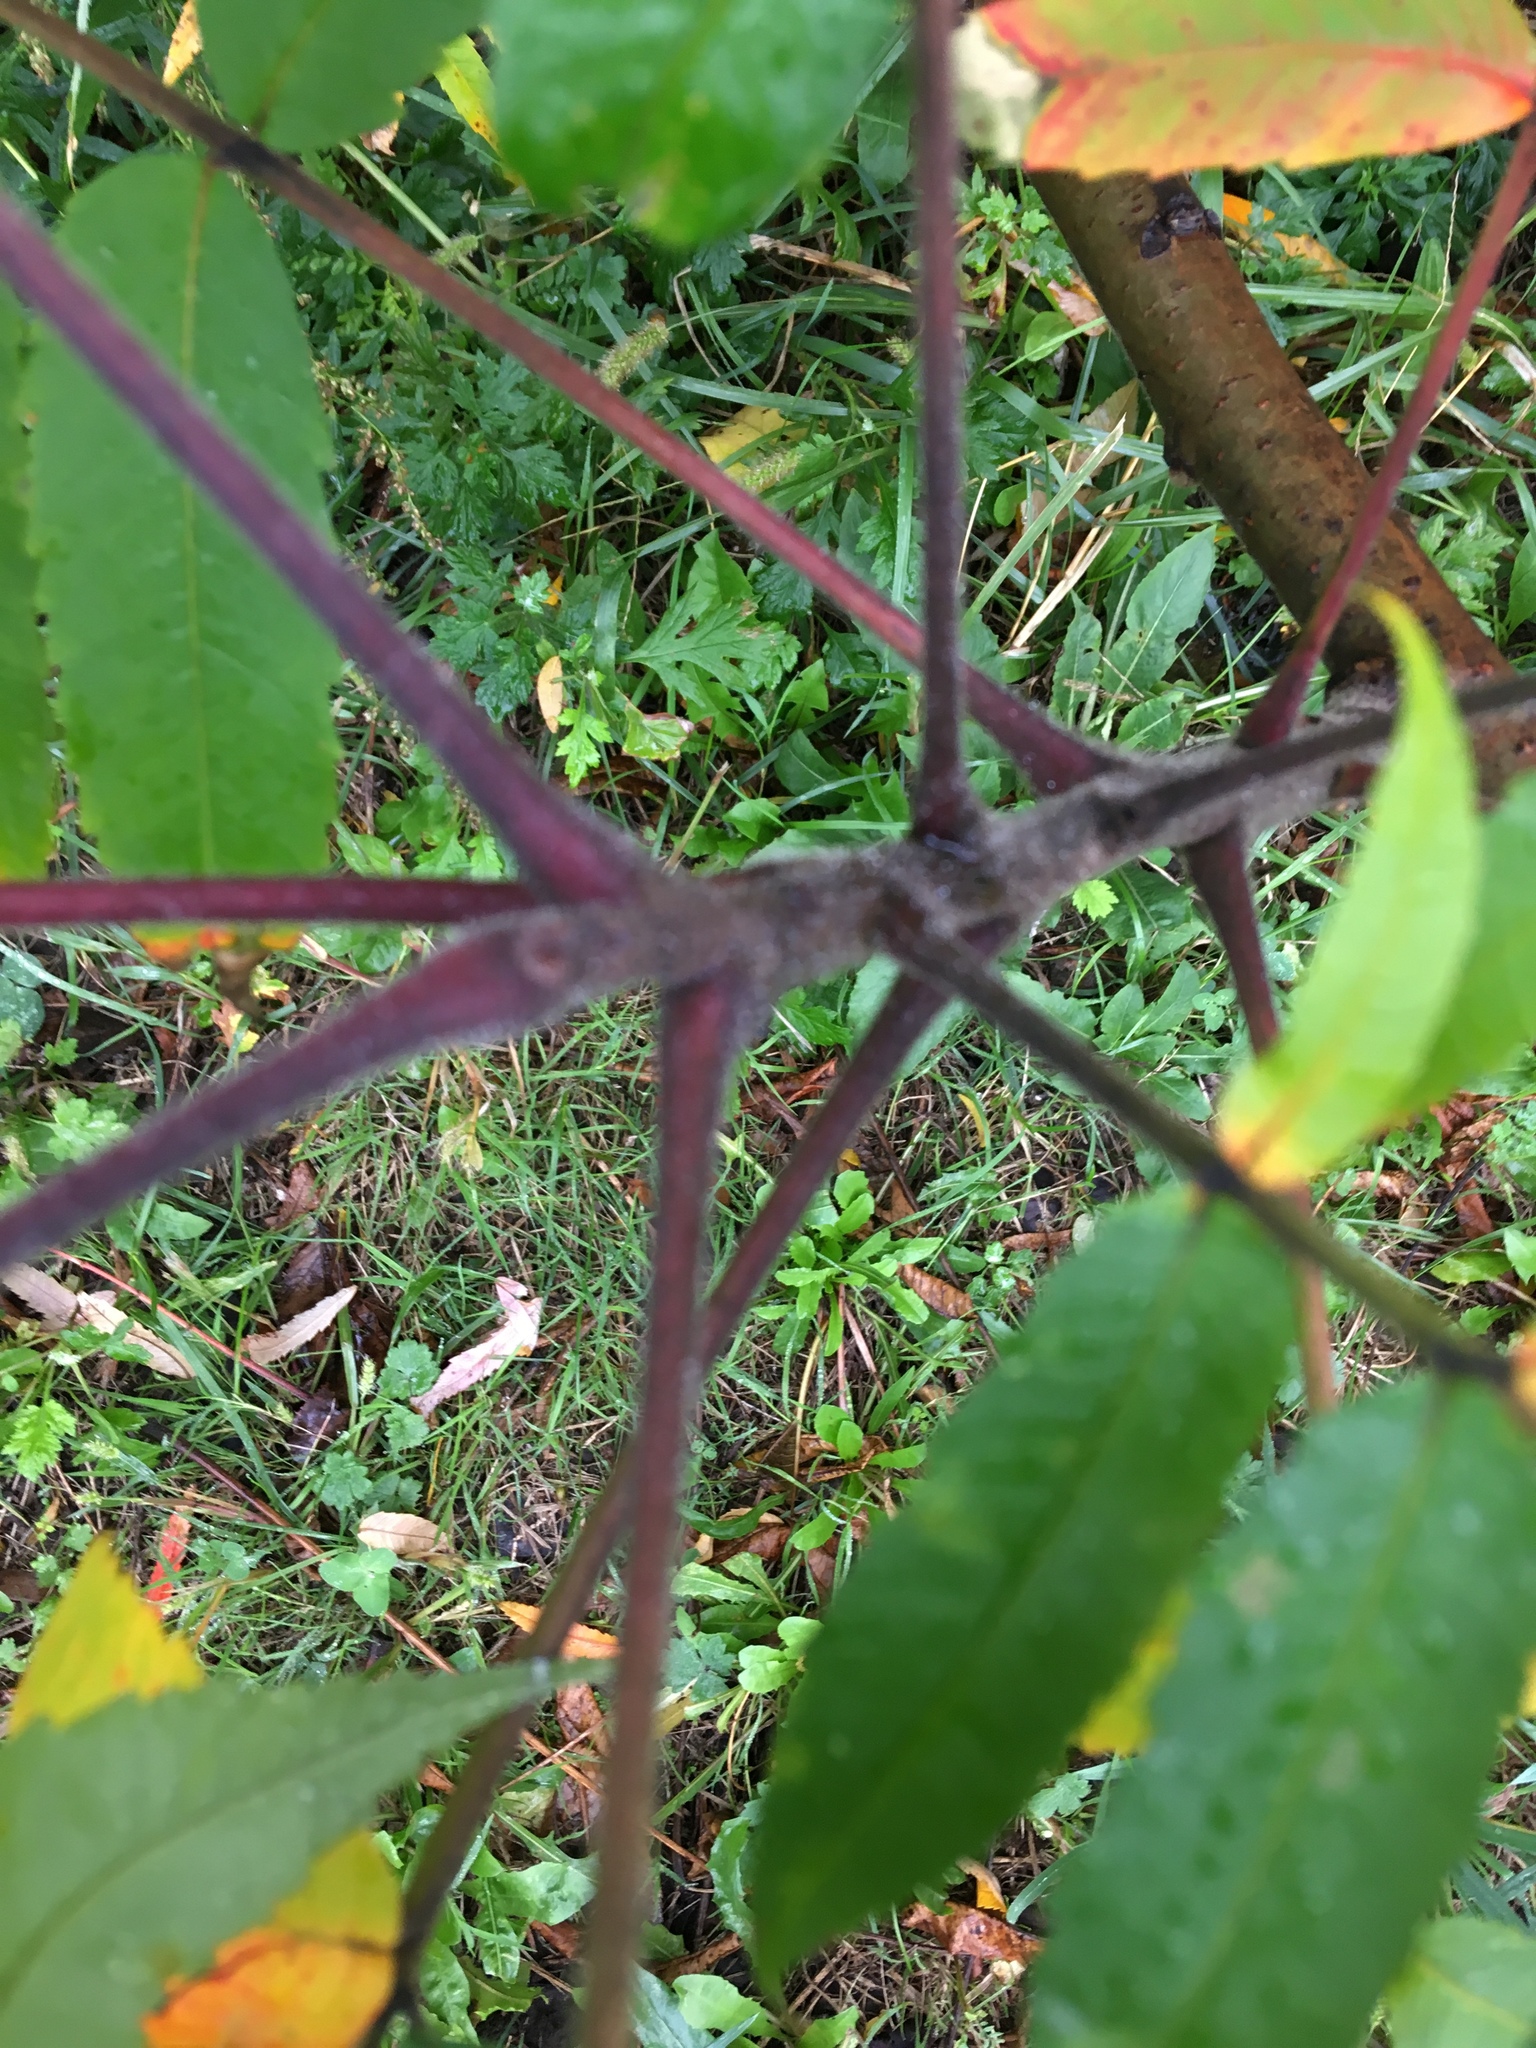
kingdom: Plantae
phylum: Tracheophyta
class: Magnoliopsida
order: Sapindales
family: Anacardiaceae
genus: Rhus
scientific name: Rhus typhina
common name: Staghorn sumac
